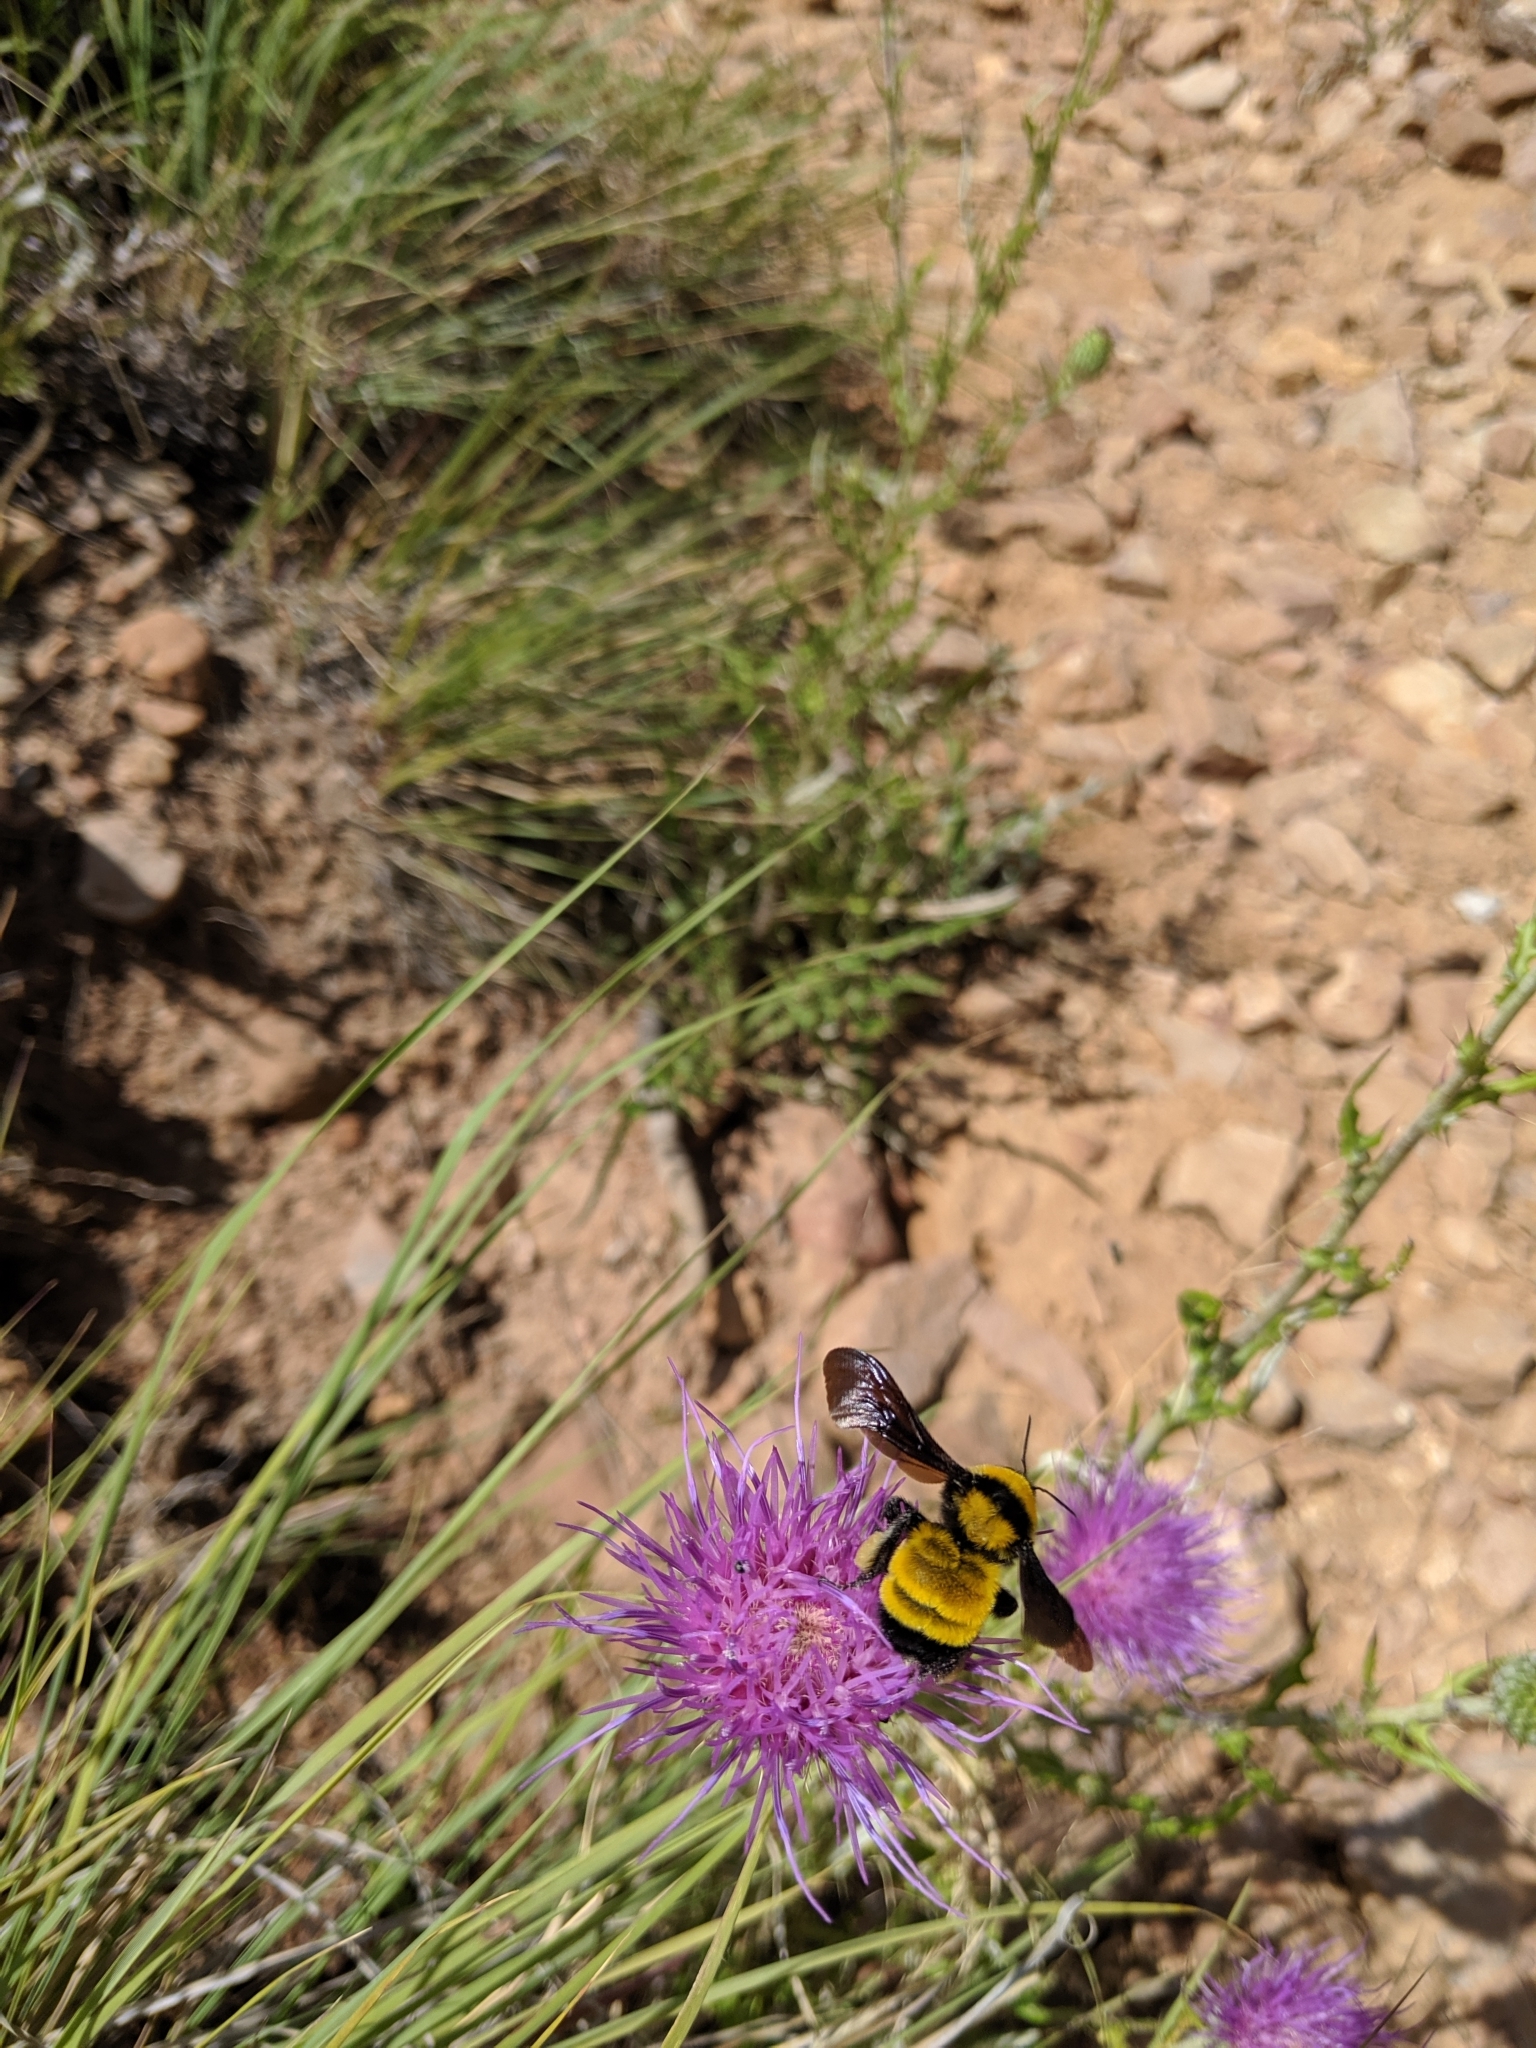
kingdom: Animalia
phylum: Arthropoda
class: Insecta
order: Hymenoptera
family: Apidae
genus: Bombus
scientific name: Bombus sonorus
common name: Sonoran bumble bee
